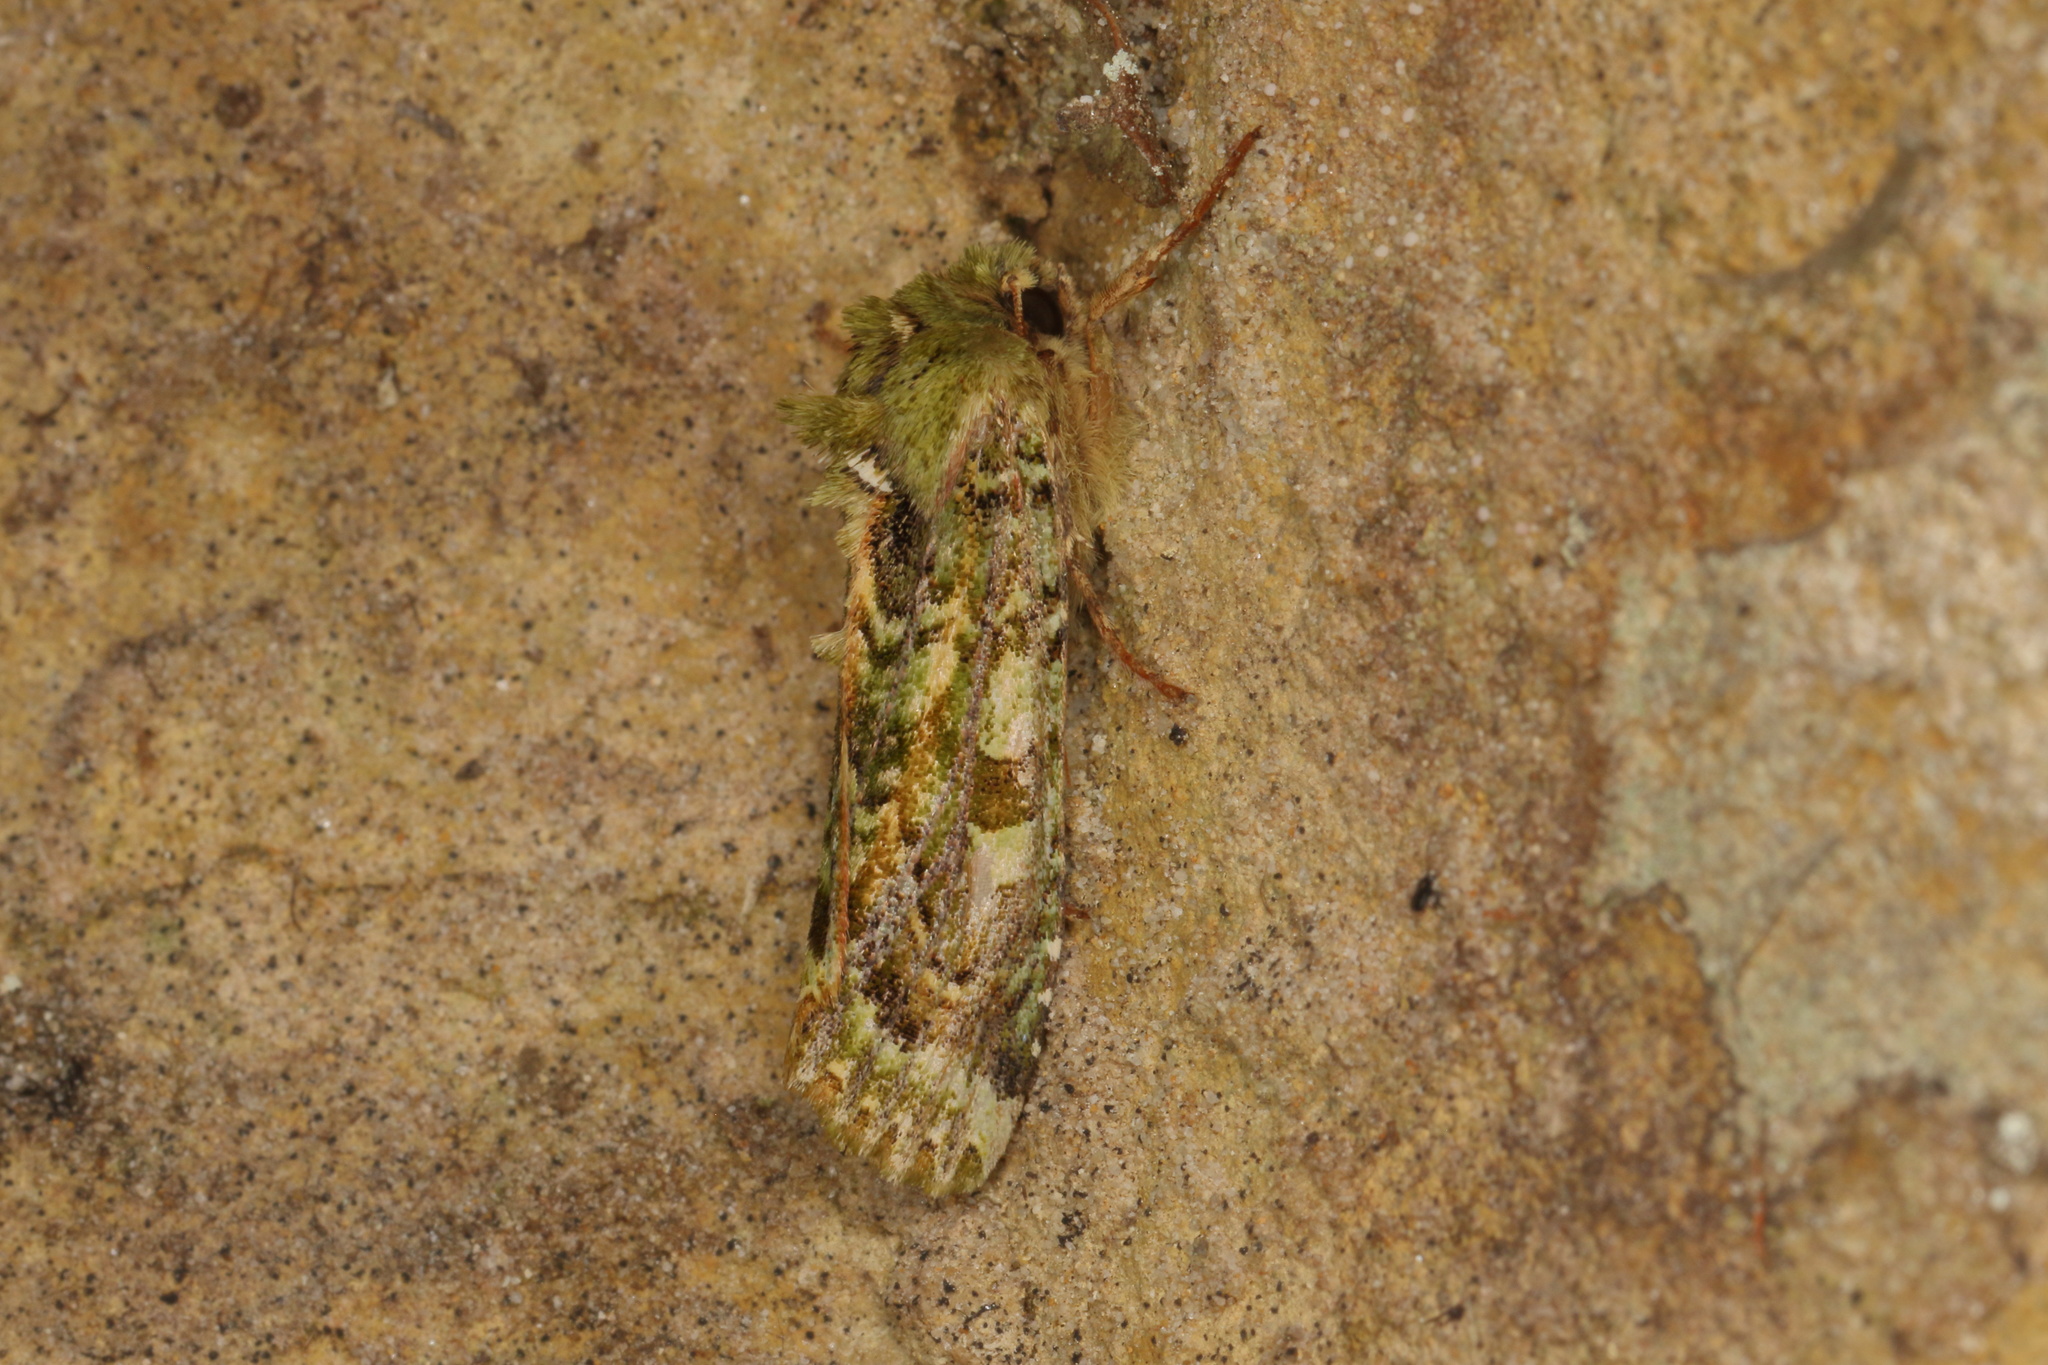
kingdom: Animalia
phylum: Arthropoda
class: Insecta
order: Lepidoptera
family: Noctuidae
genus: Feredayia
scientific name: Feredayia grammosa
